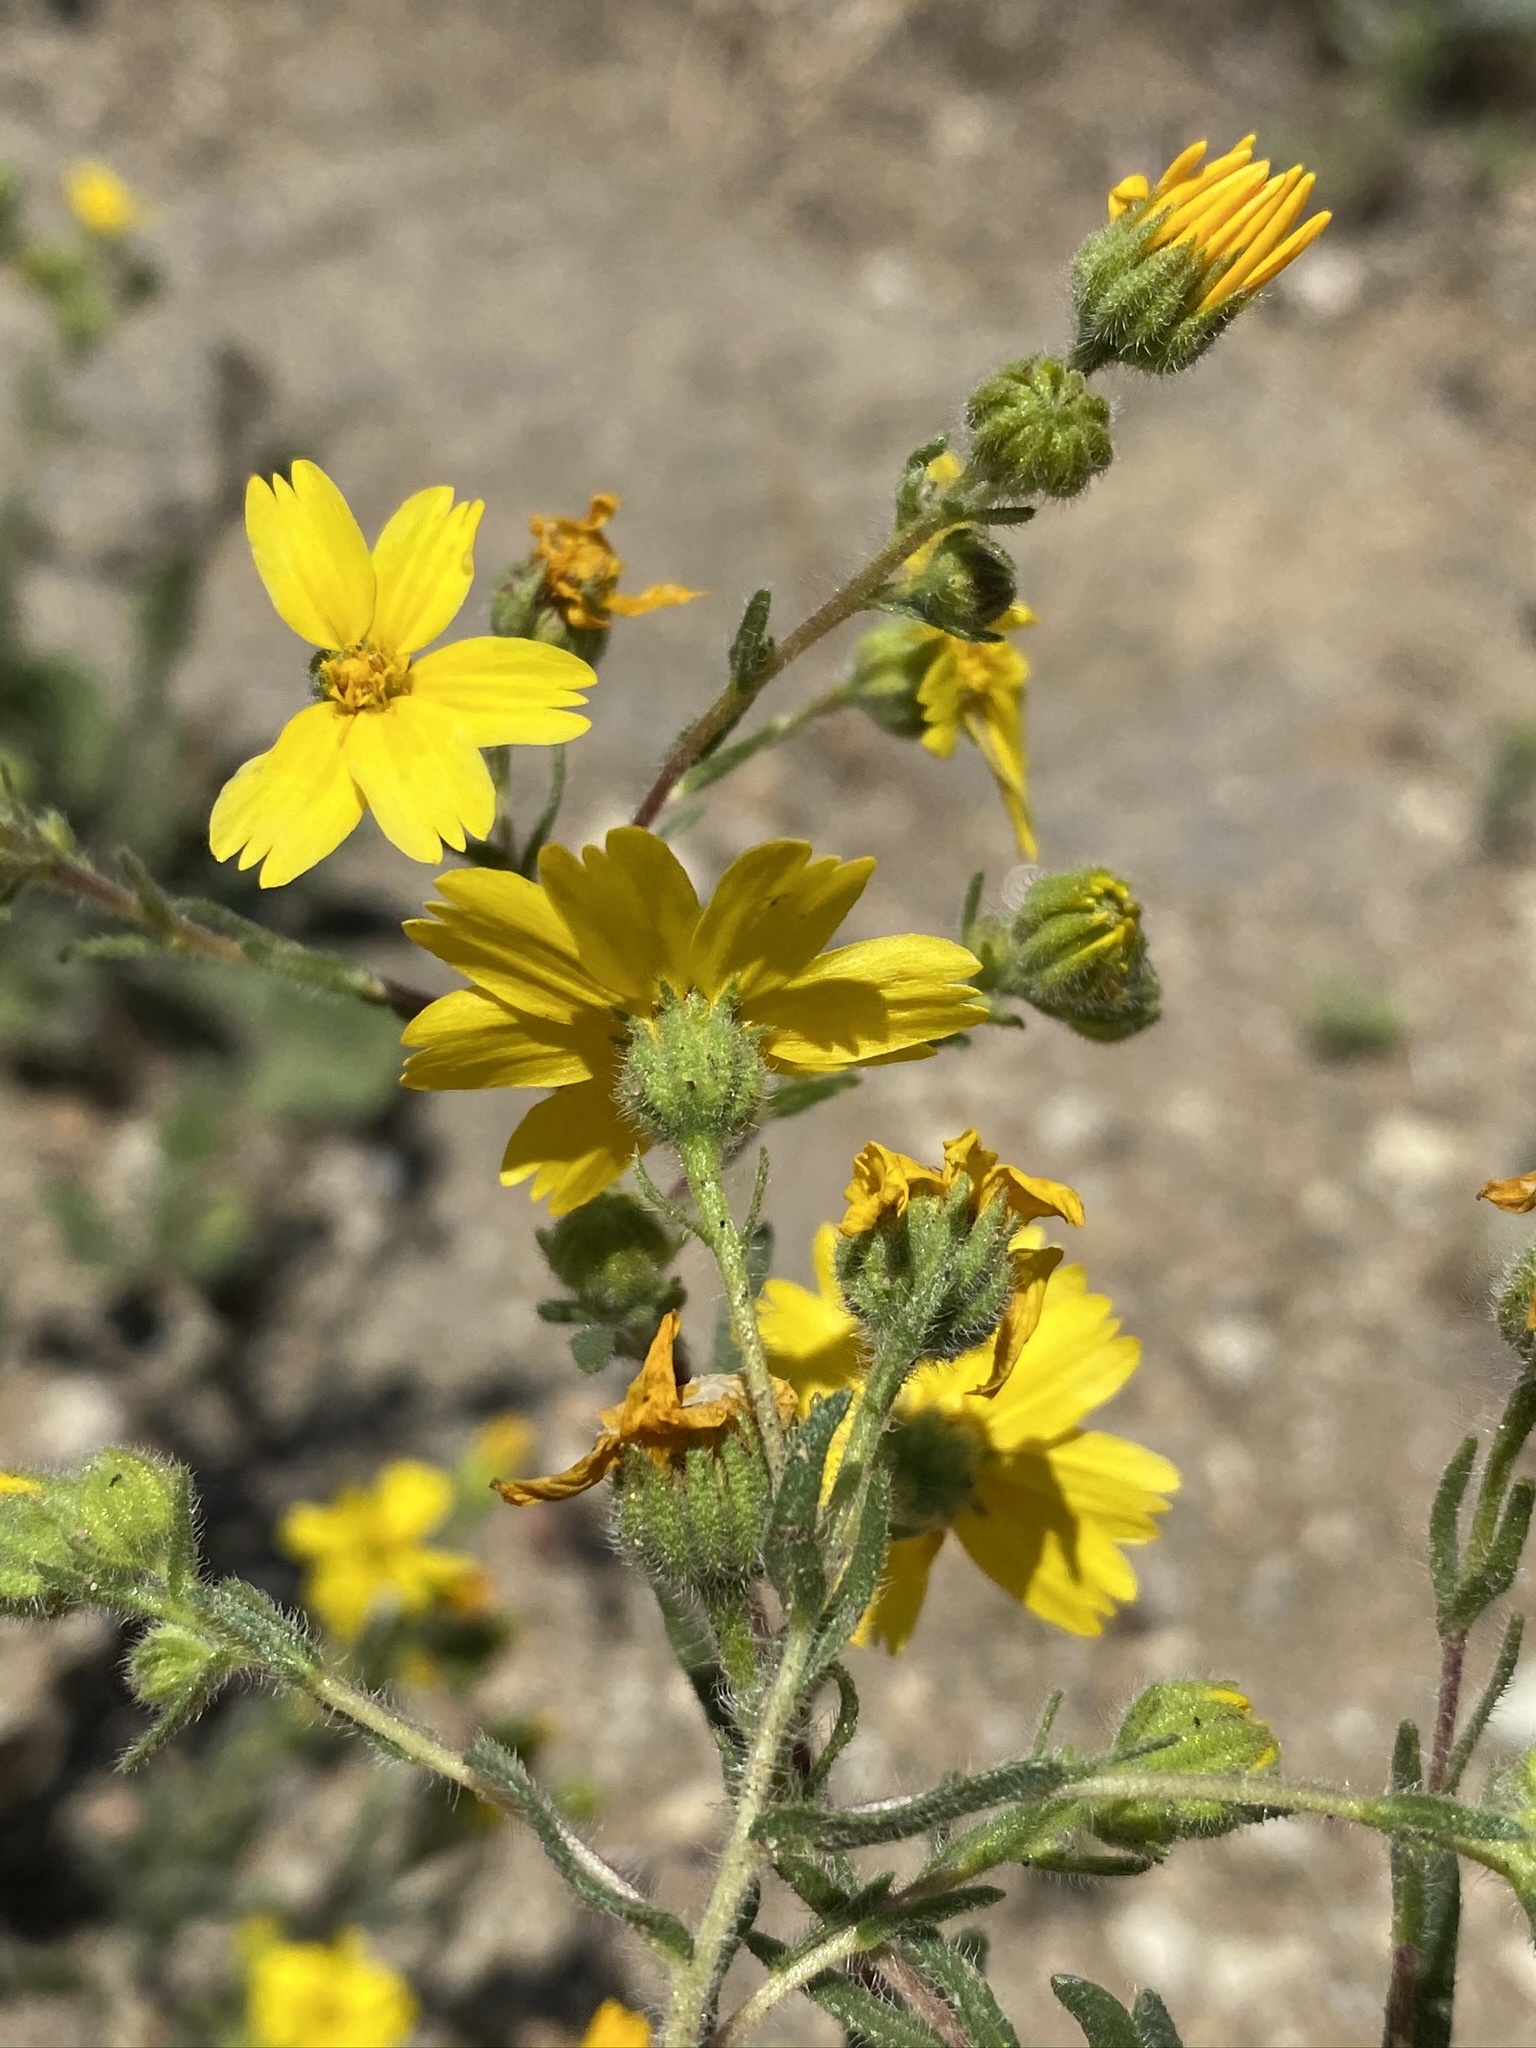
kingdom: Plantae
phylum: Tracheophyta
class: Magnoliopsida
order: Asterales
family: Asteraceae
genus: Deinandra
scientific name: Deinandra pallida
